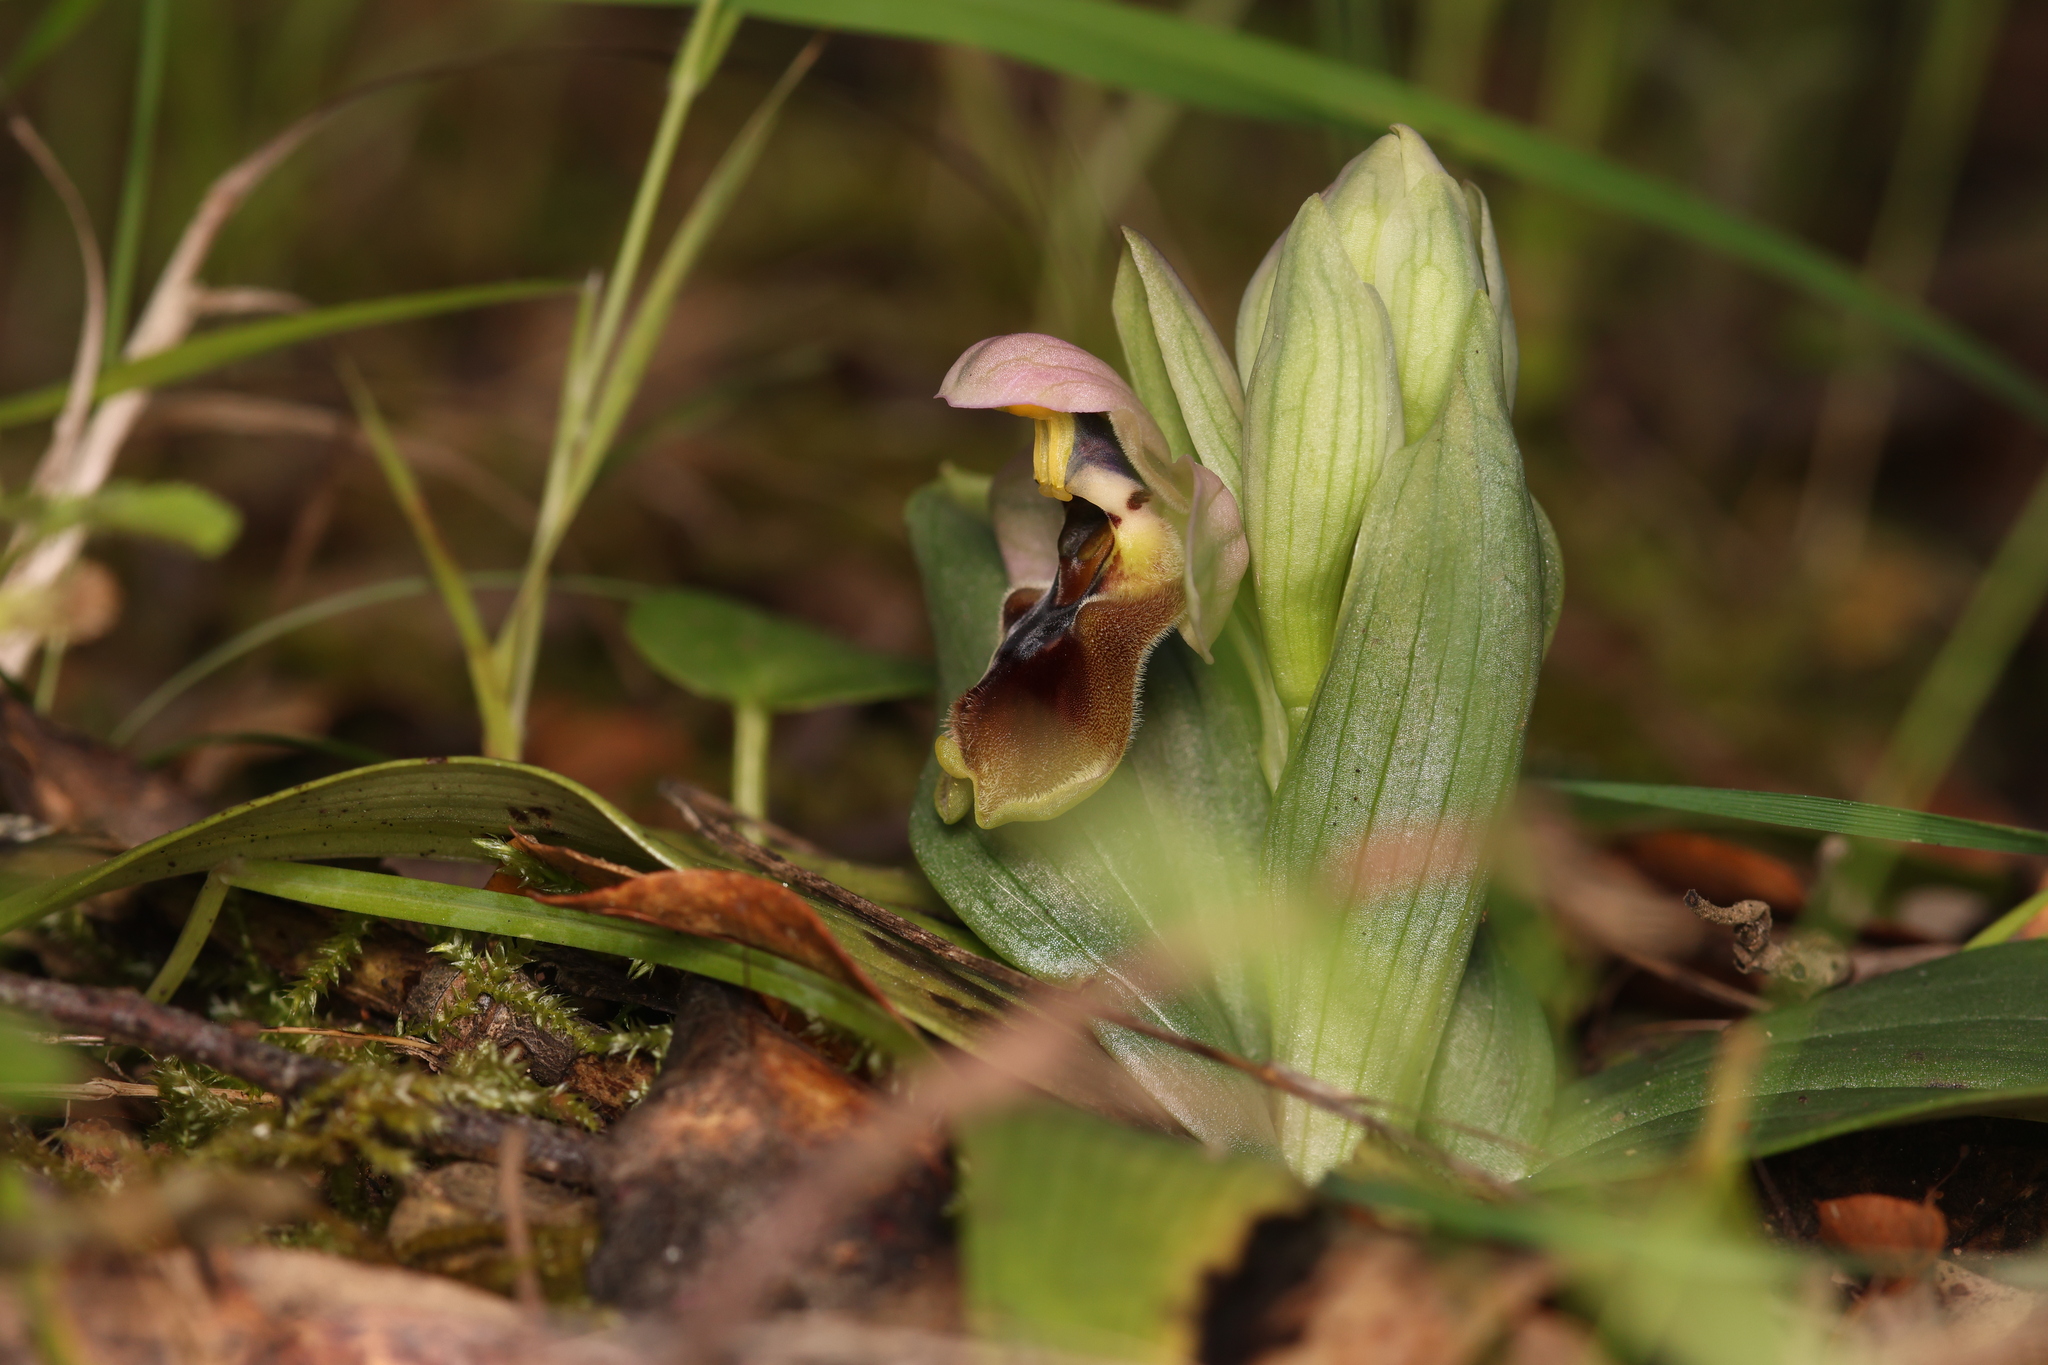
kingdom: Plantae
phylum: Tracheophyta
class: Liliopsida
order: Asparagales
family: Orchidaceae
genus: Ophrys
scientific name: Ophrys tenthredinifera
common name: Sawfly orchid
